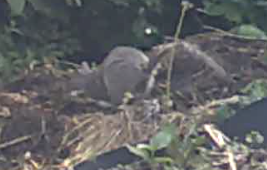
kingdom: Animalia
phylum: Chordata
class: Mammalia
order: Rodentia
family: Sciuridae
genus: Sciurus
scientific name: Sciurus carolinensis
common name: Eastern gray squirrel
